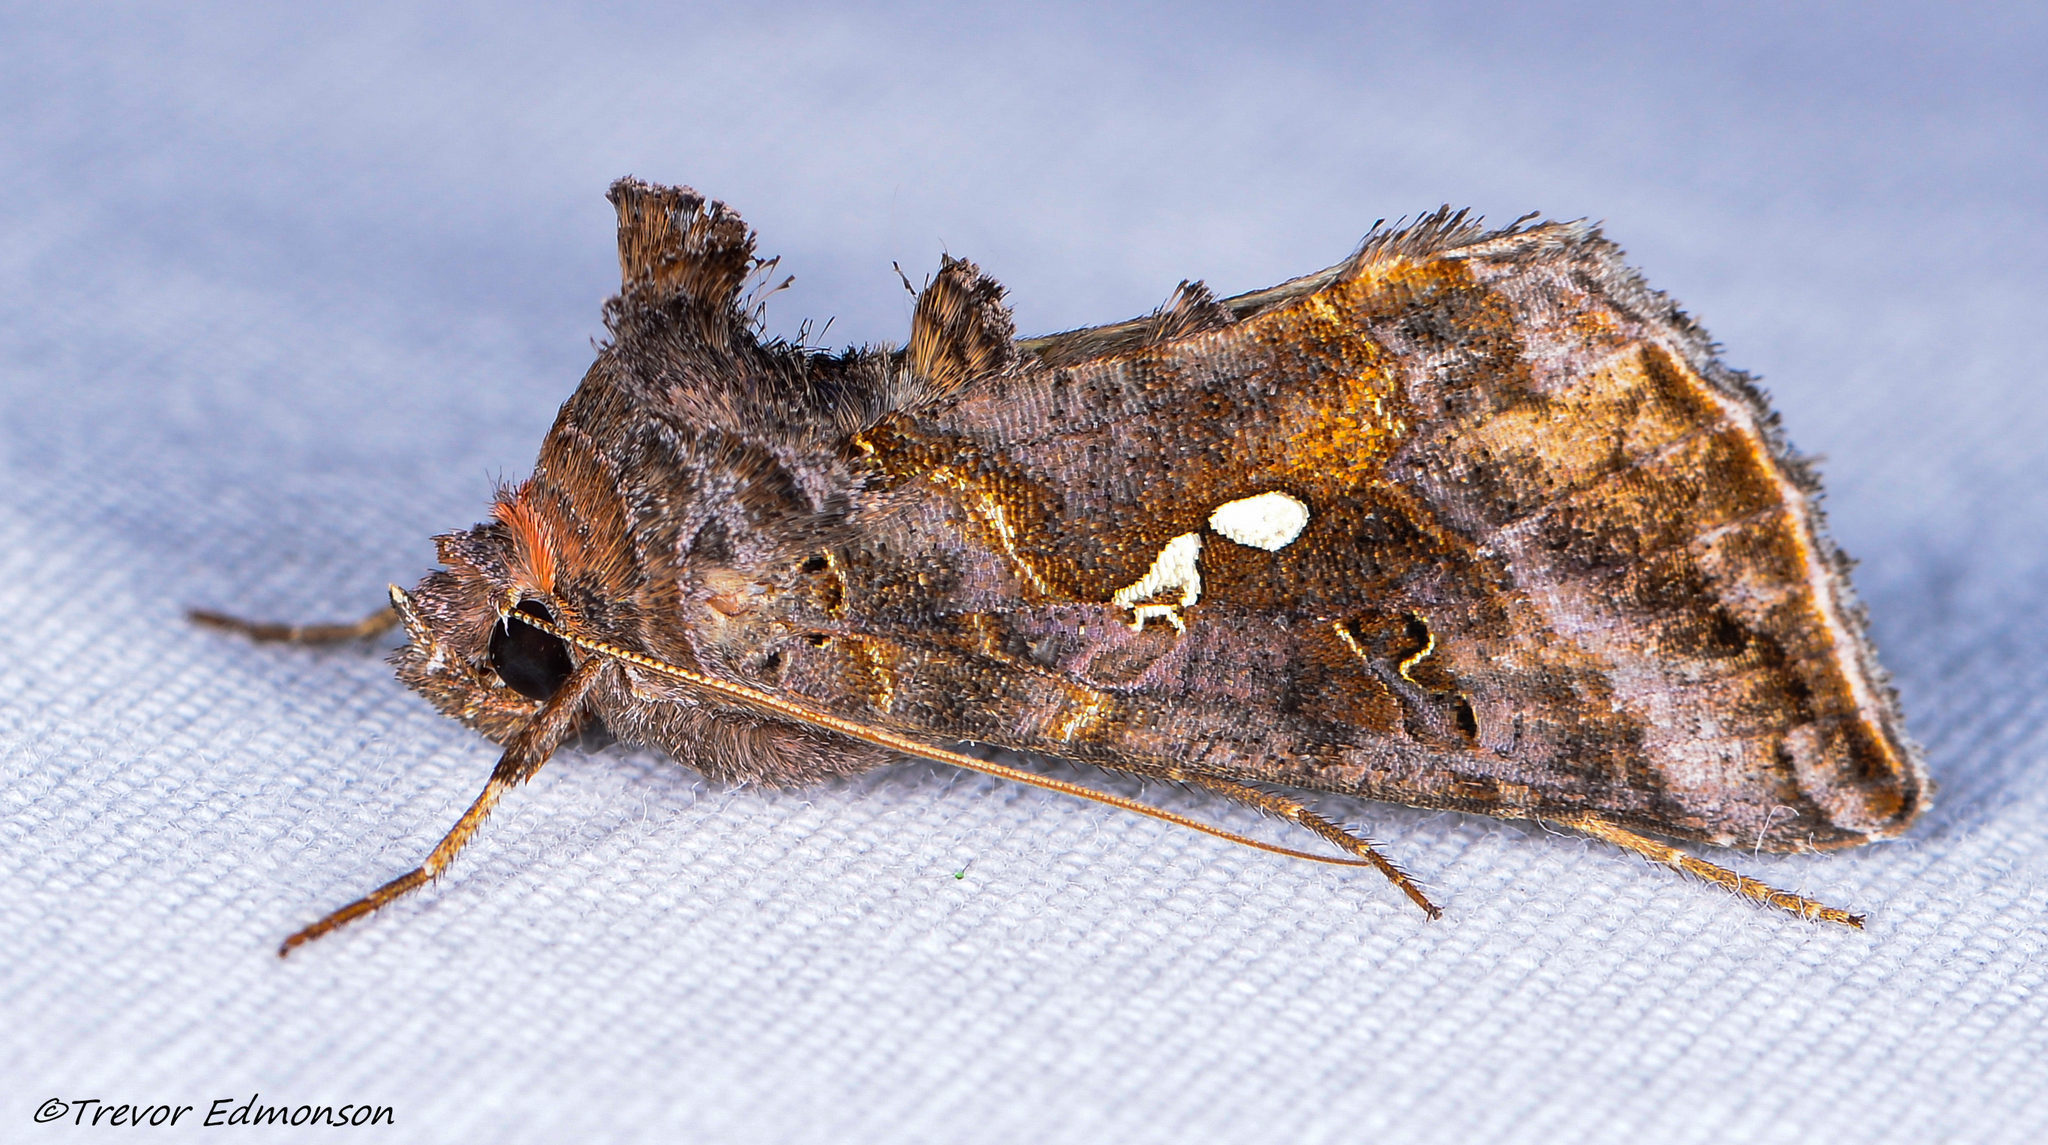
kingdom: Animalia
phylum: Arthropoda
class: Insecta
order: Lepidoptera
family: Noctuidae
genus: Autographa
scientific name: Autographa precationis
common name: Common looper moth
